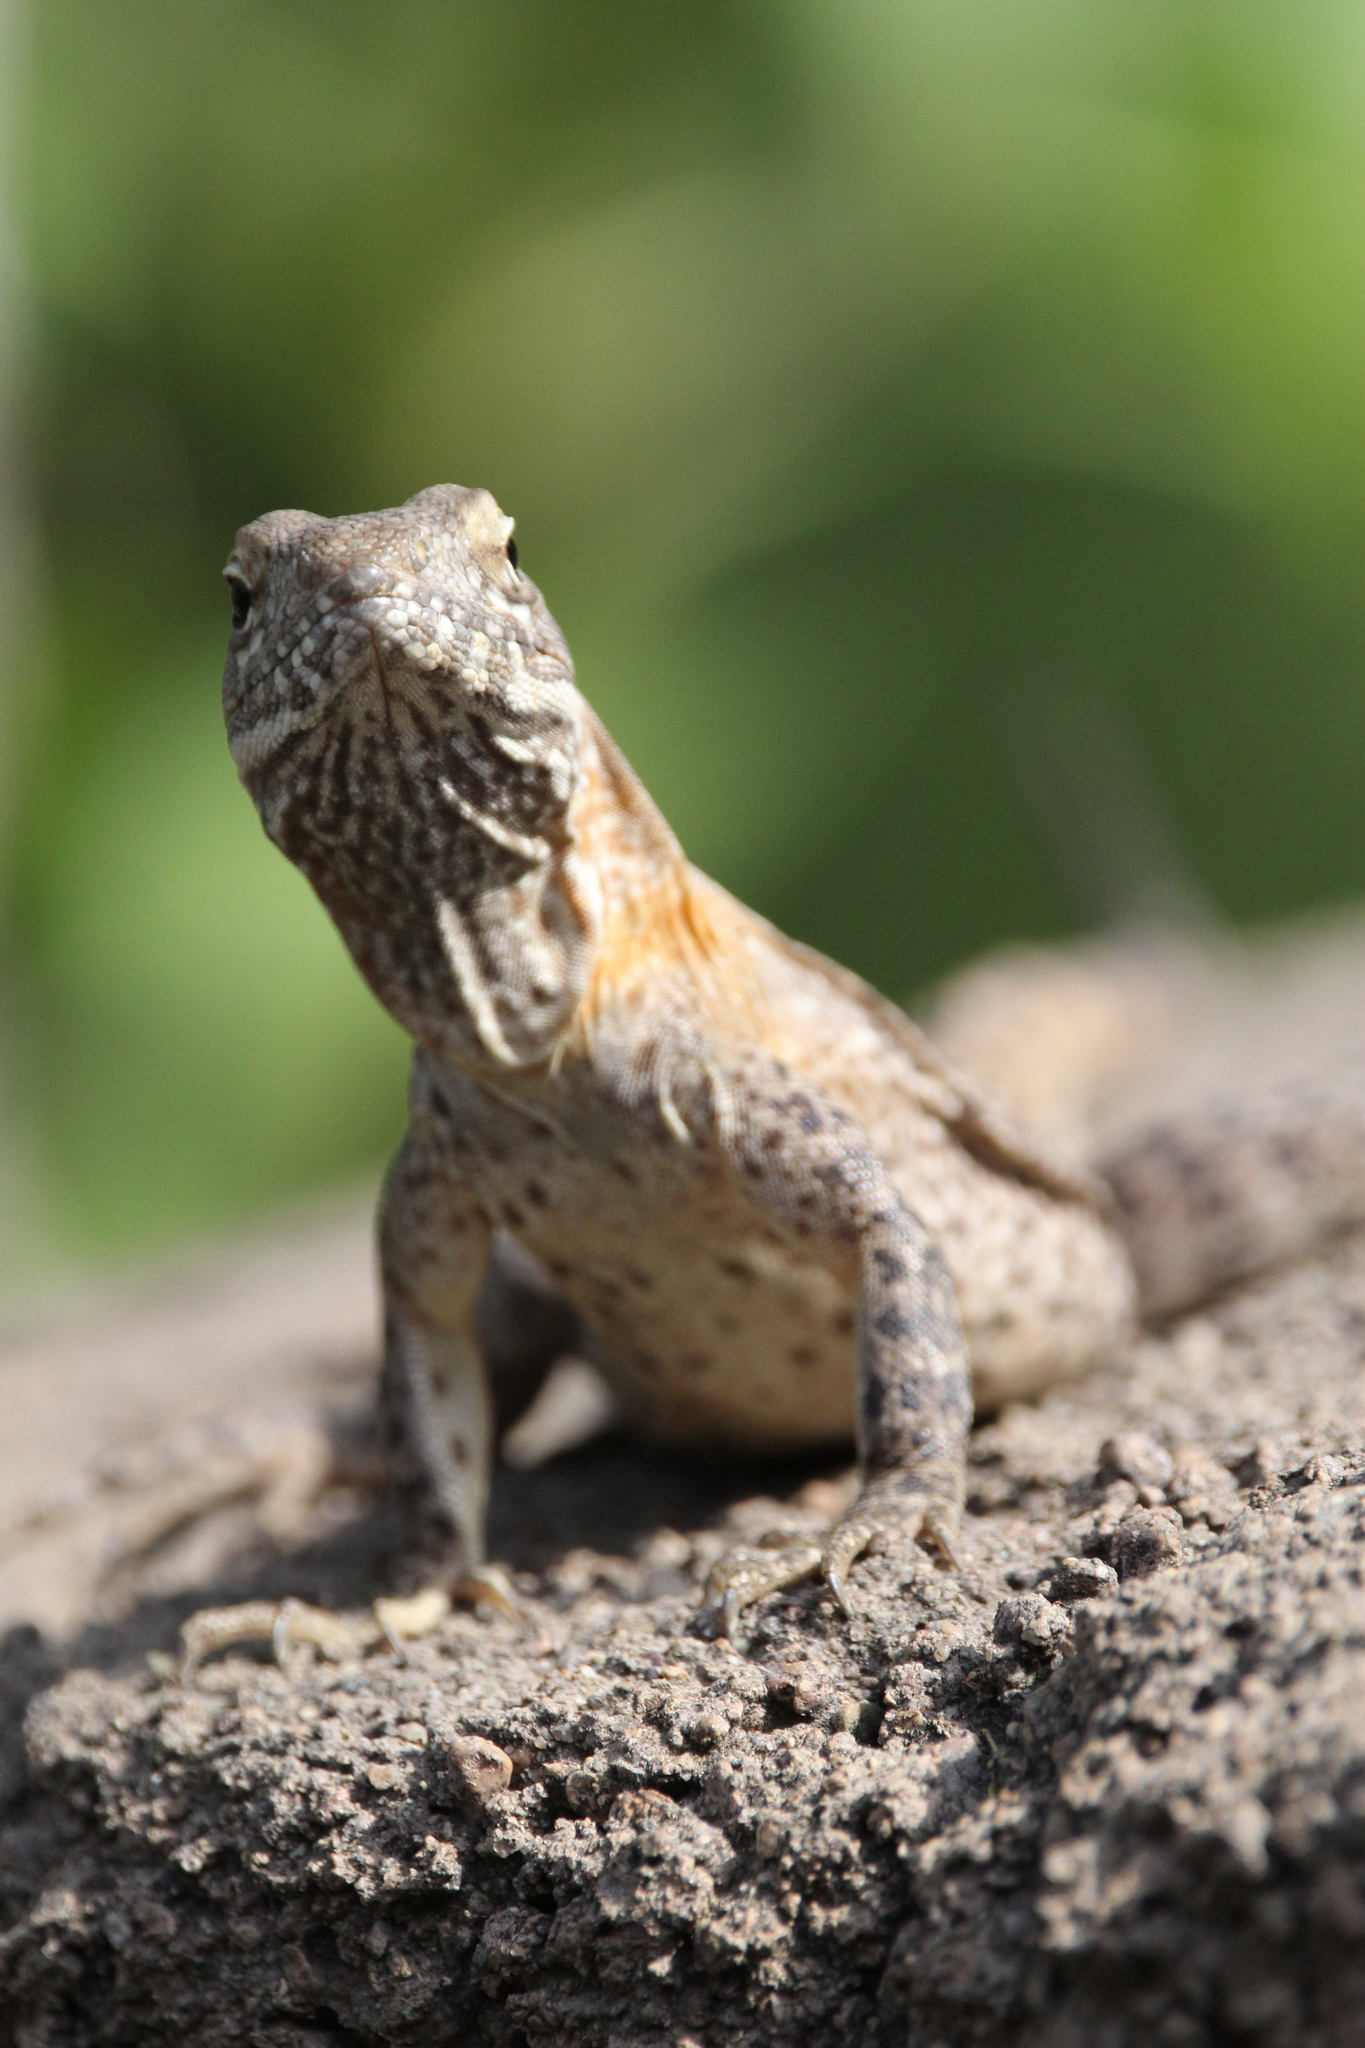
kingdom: Animalia
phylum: Chordata
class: Squamata
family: Iguanidae
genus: Ctenosaura
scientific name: Ctenosaura
